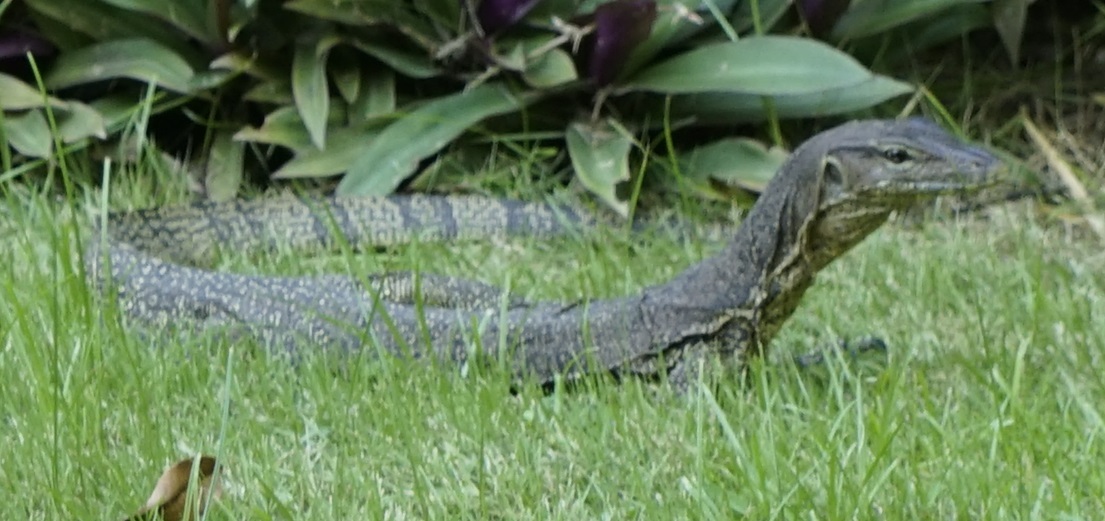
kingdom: Animalia
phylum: Chordata
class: Squamata
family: Varanidae
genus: Varanus
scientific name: Varanus salvator
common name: Common water monitor
